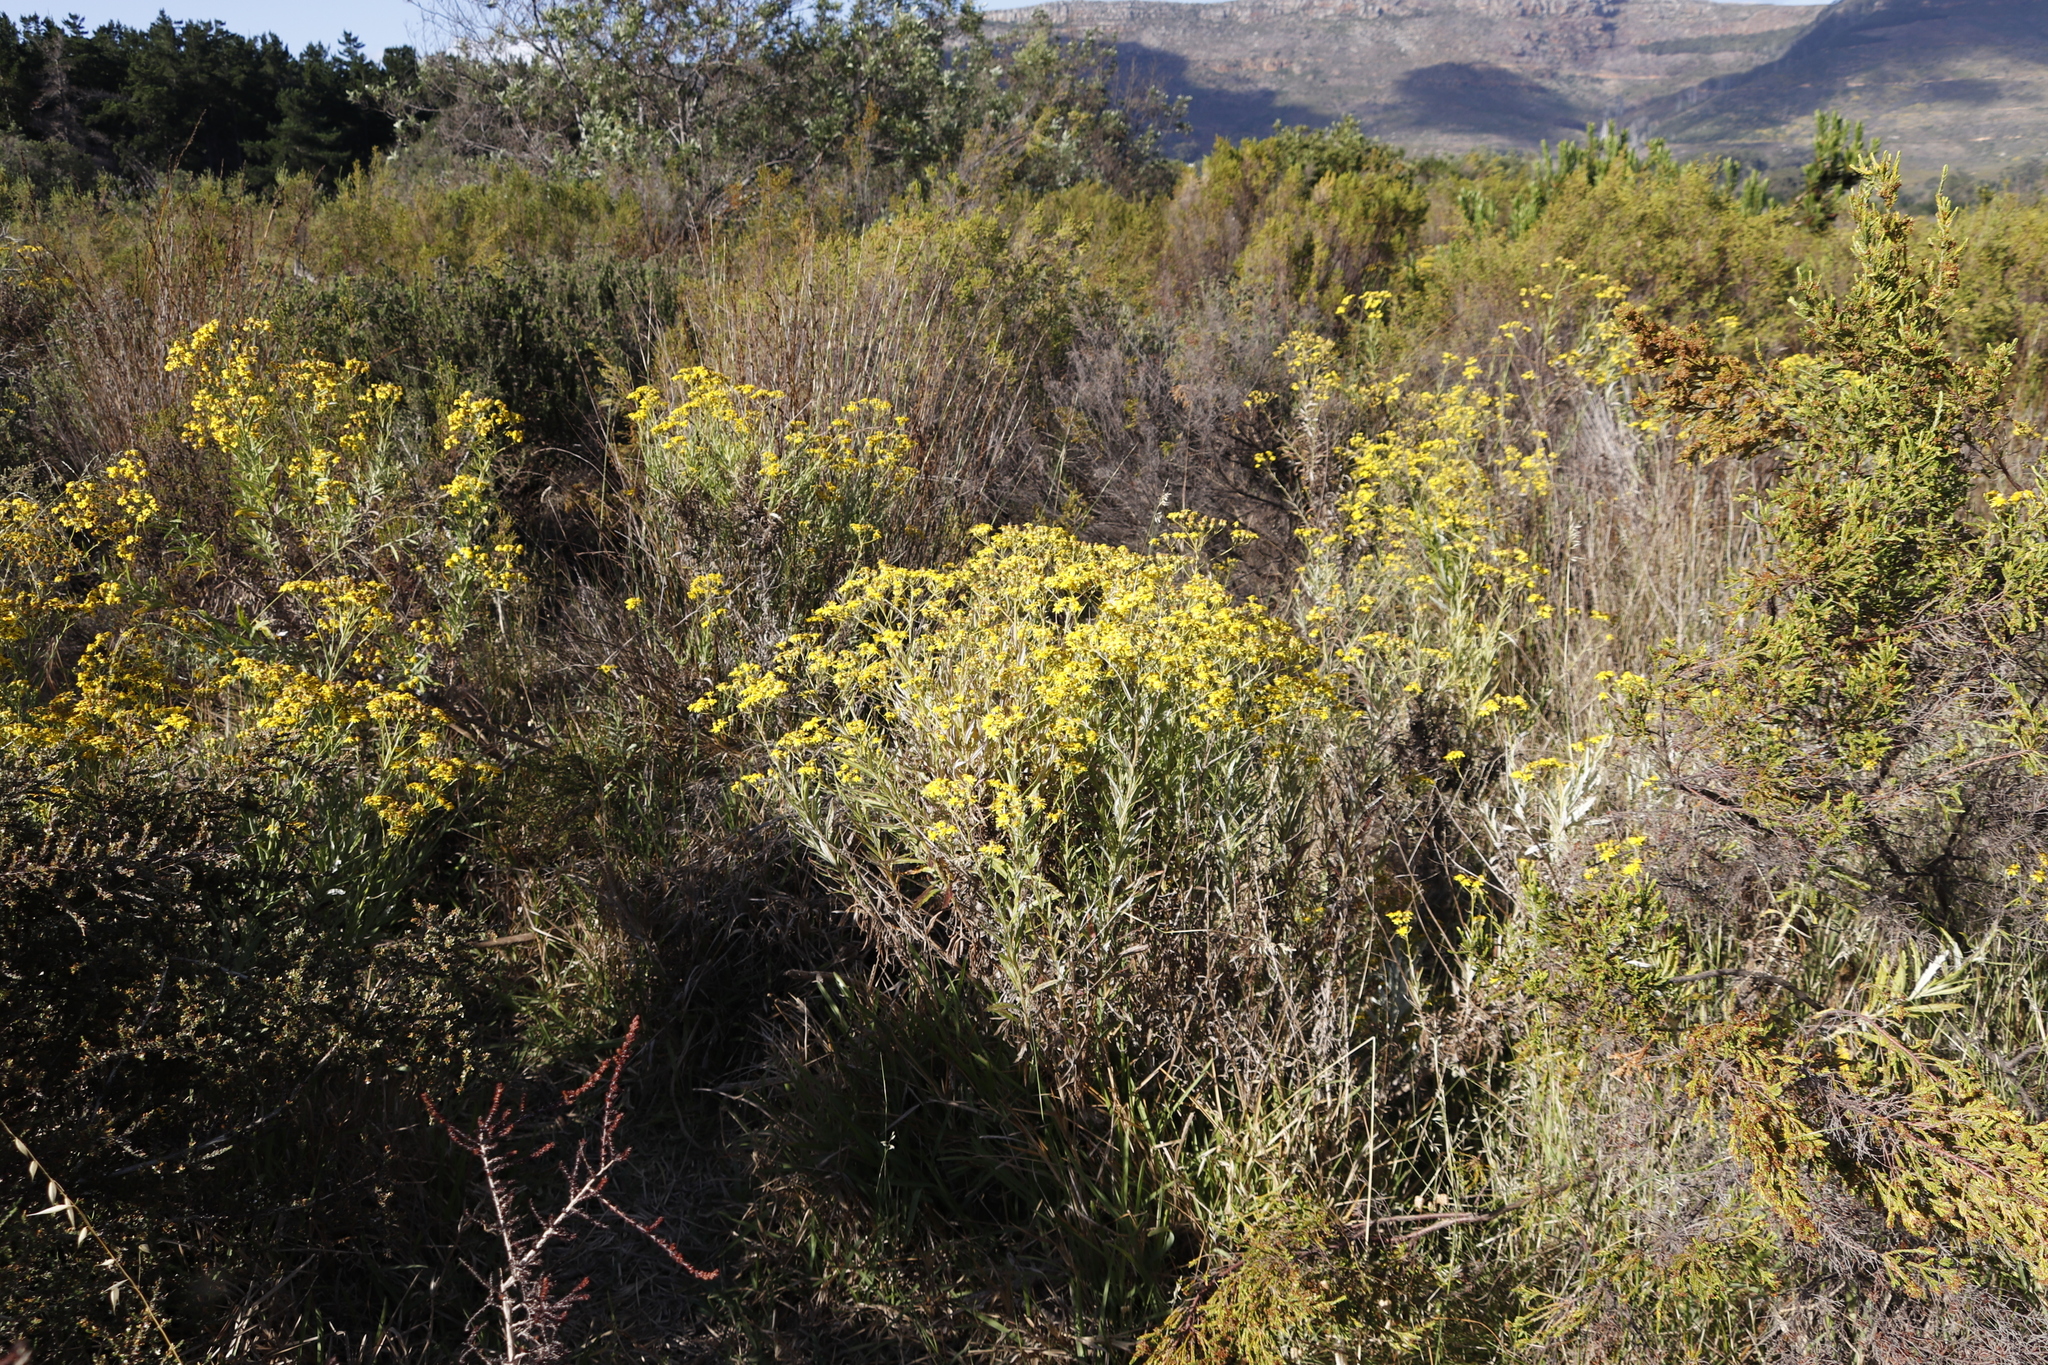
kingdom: Plantae
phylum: Tracheophyta
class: Magnoliopsida
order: Asterales
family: Asteraceae
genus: Senecio
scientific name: Senecio pterophorus
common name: Shoddy ragwort
